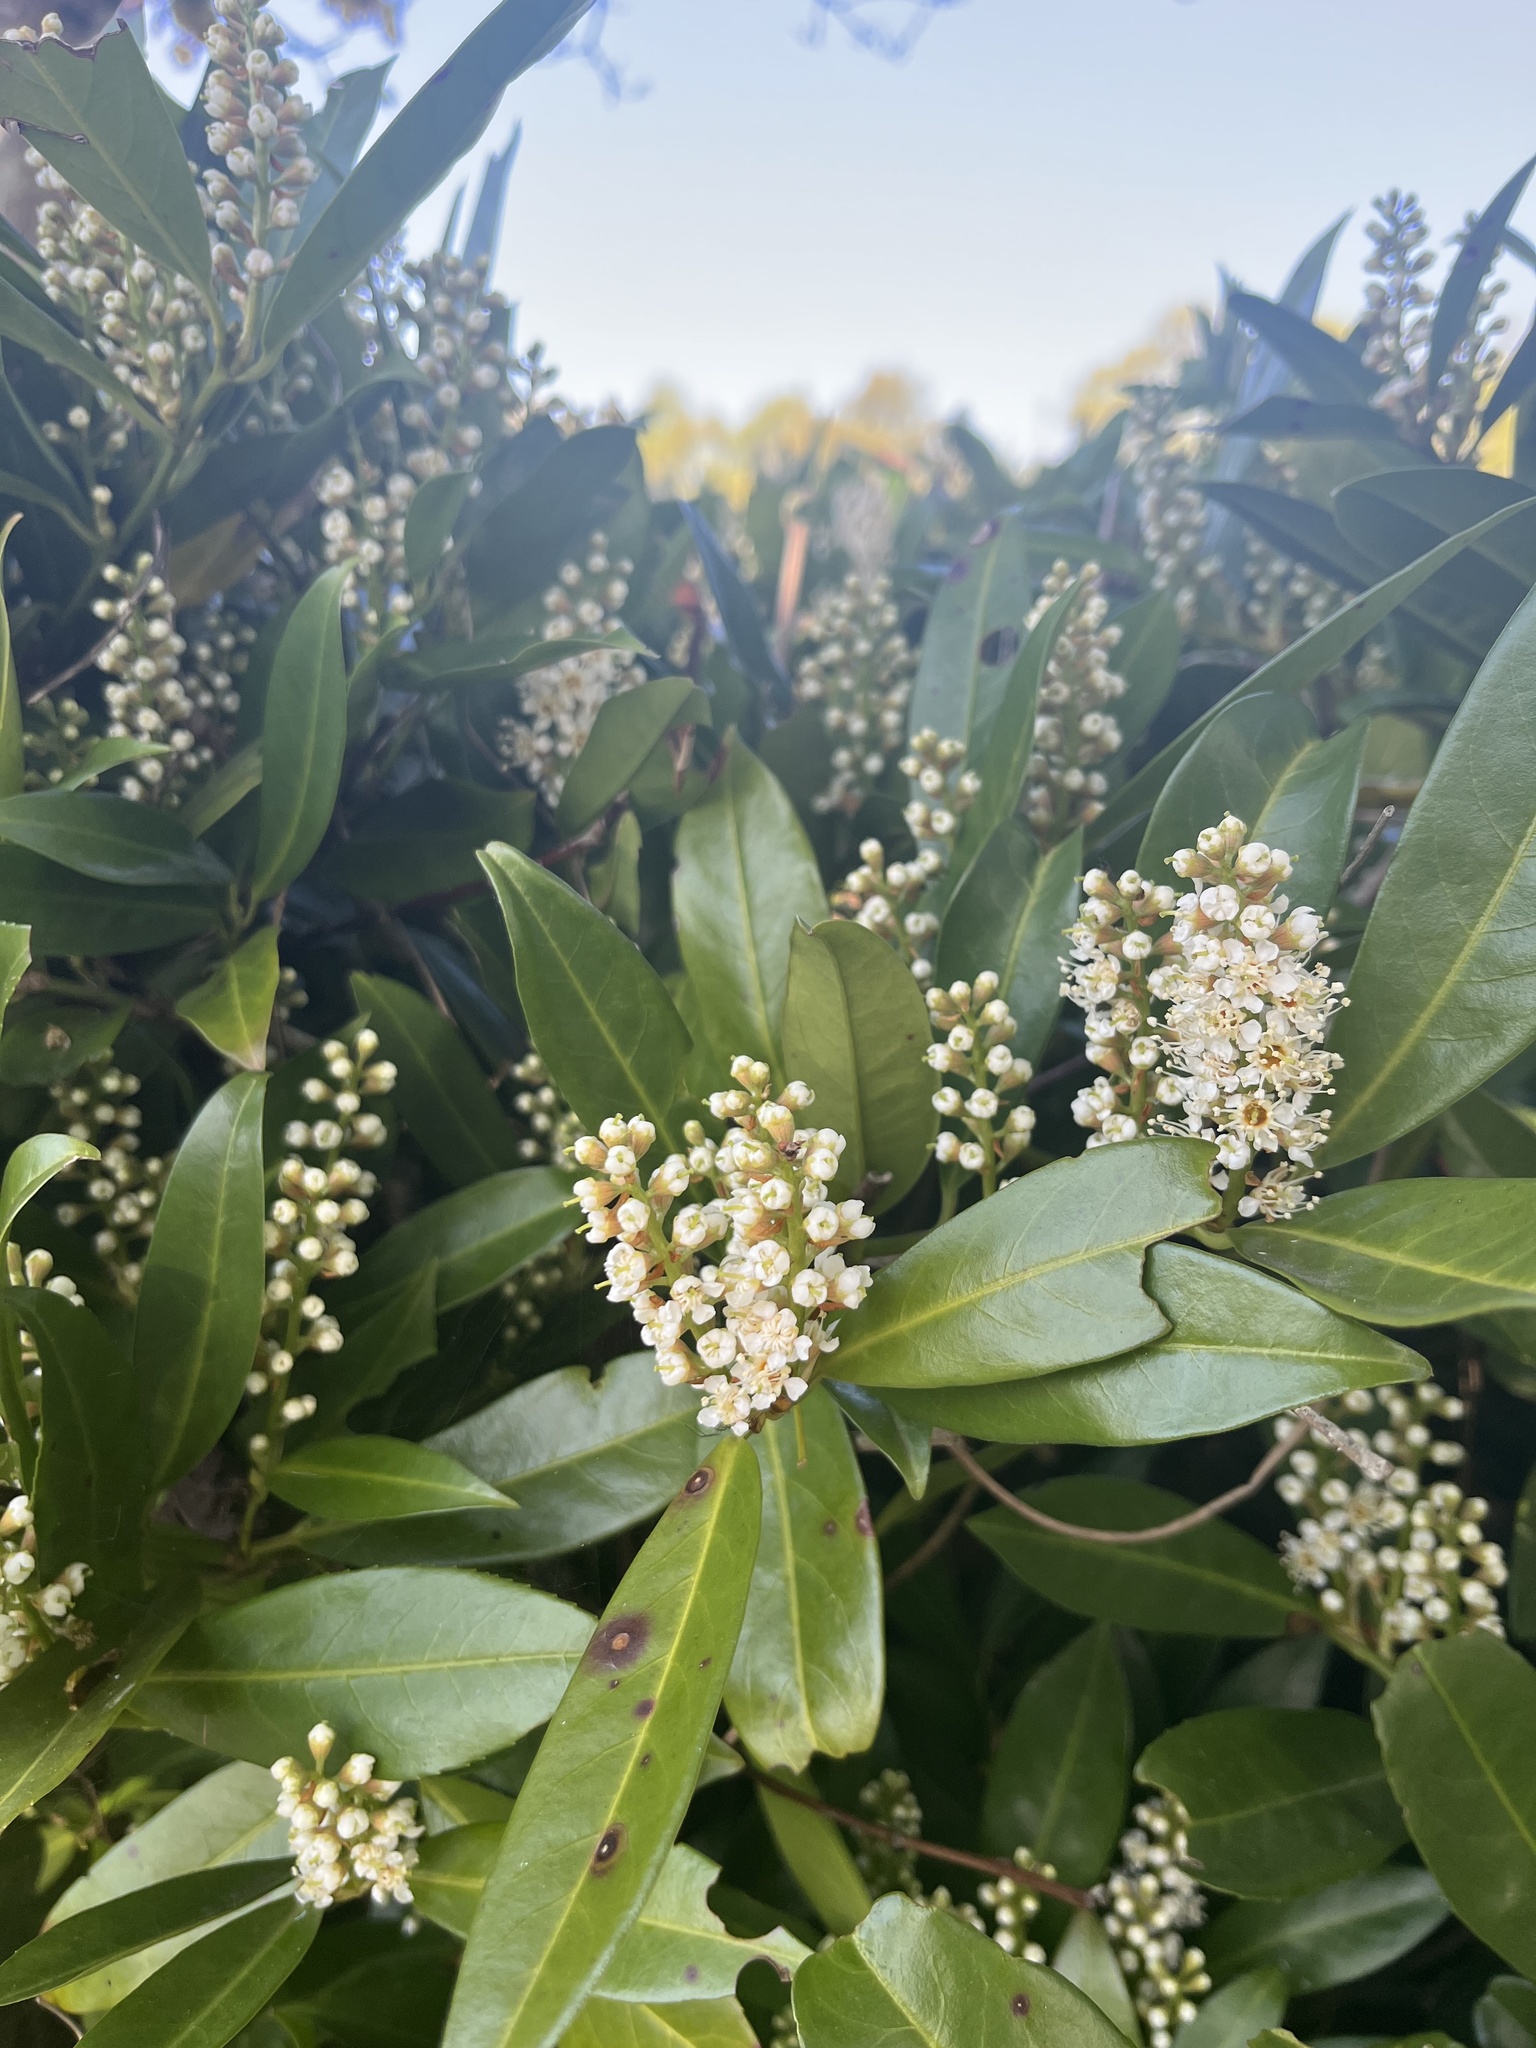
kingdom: Plantae
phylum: Tracheophyta
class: Magnoliopsida
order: Rosales
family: Rosaceae
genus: Prunus
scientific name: Prunus laurocerasus
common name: Cherry laurel
